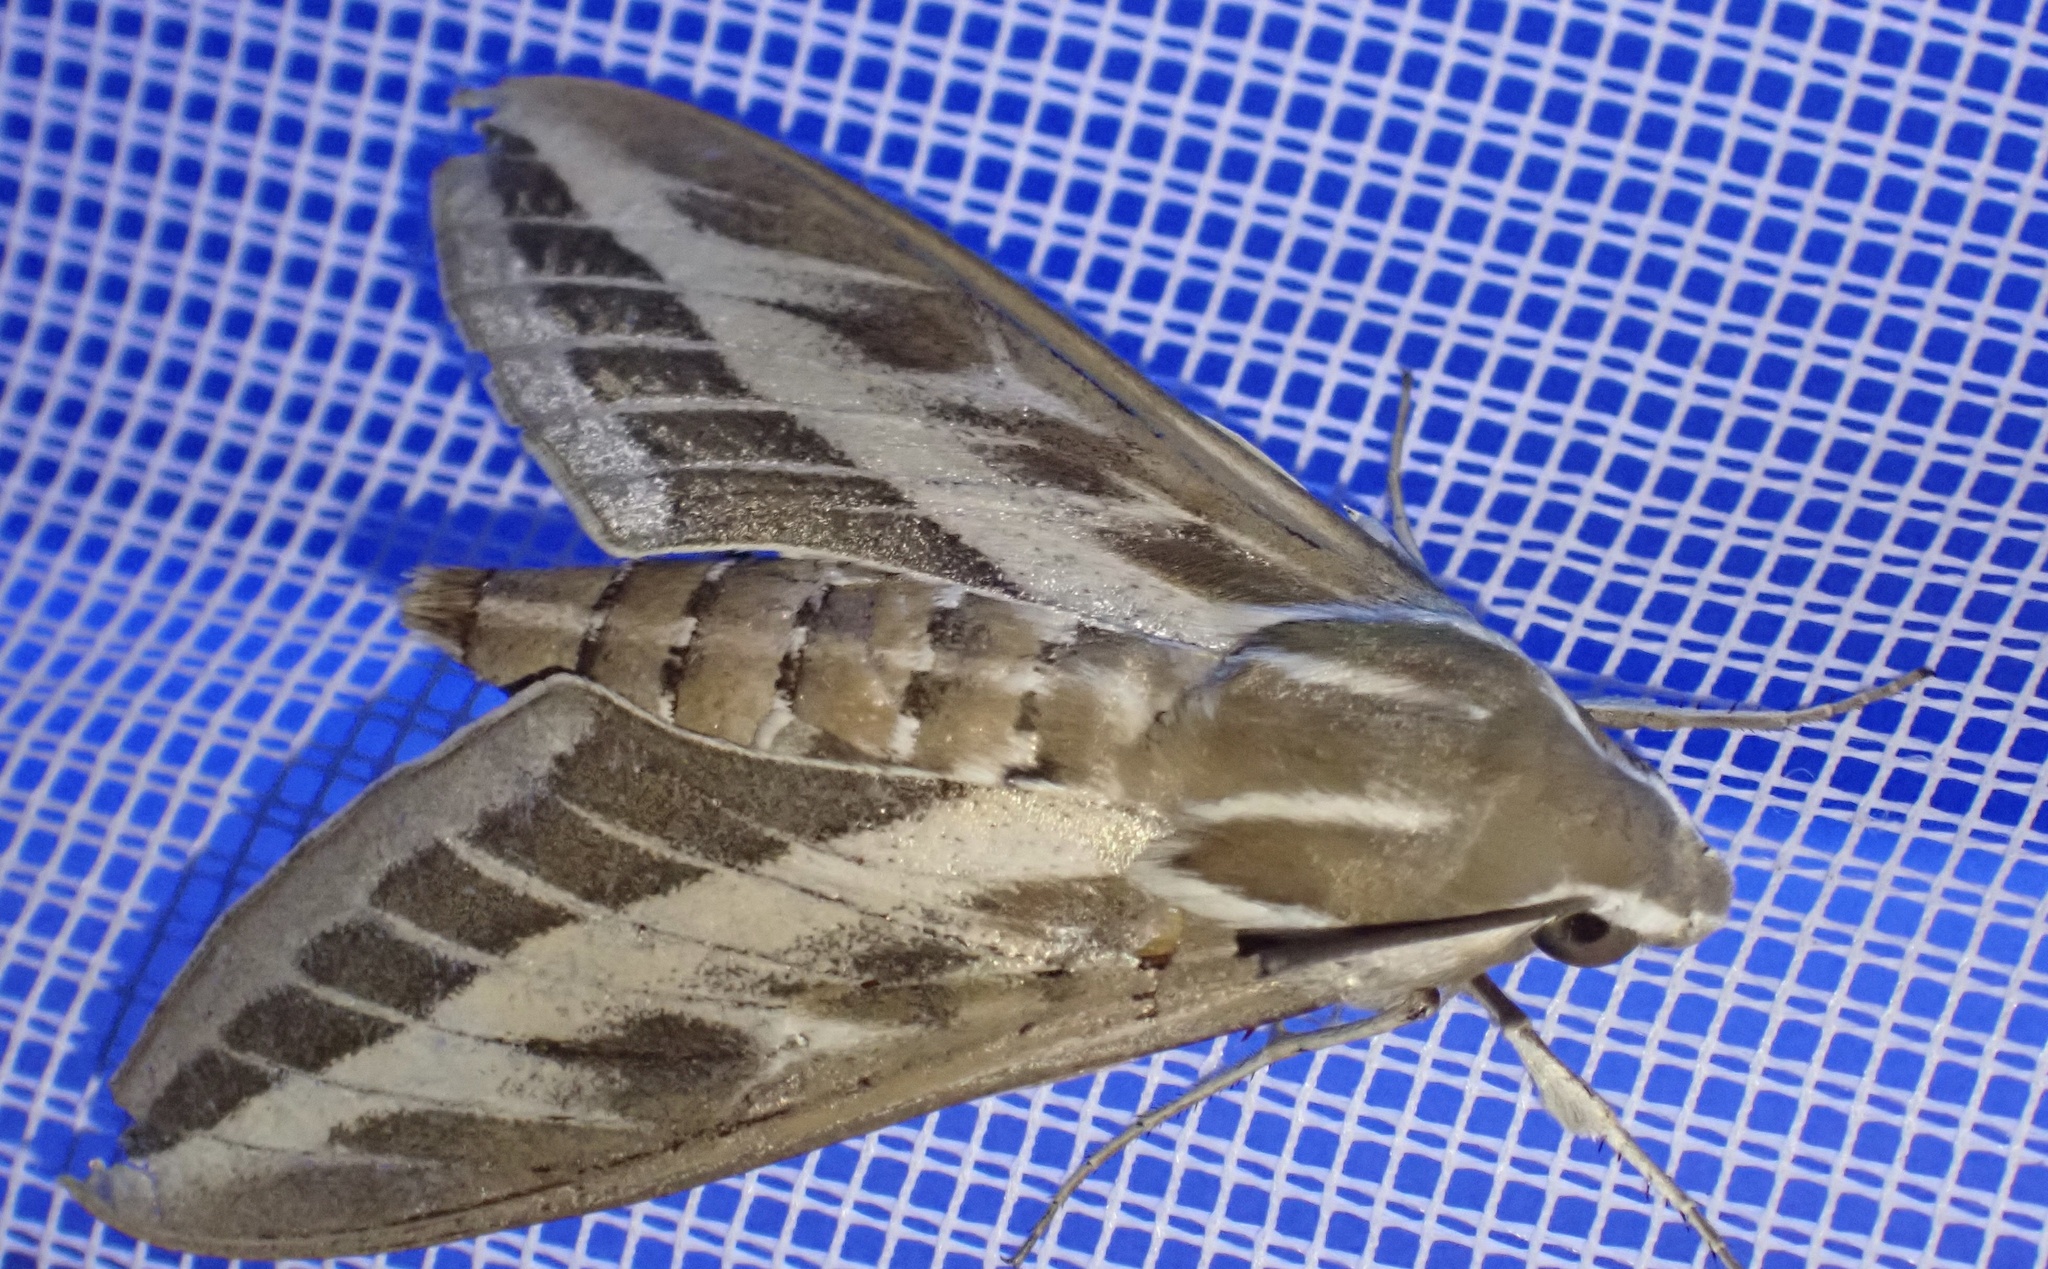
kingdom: Animalia
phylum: Arthropoda
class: Insecta
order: Lepidoptera
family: Sphingidae
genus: Hyles
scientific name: Hyles livornica
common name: Striped hawk-moth
